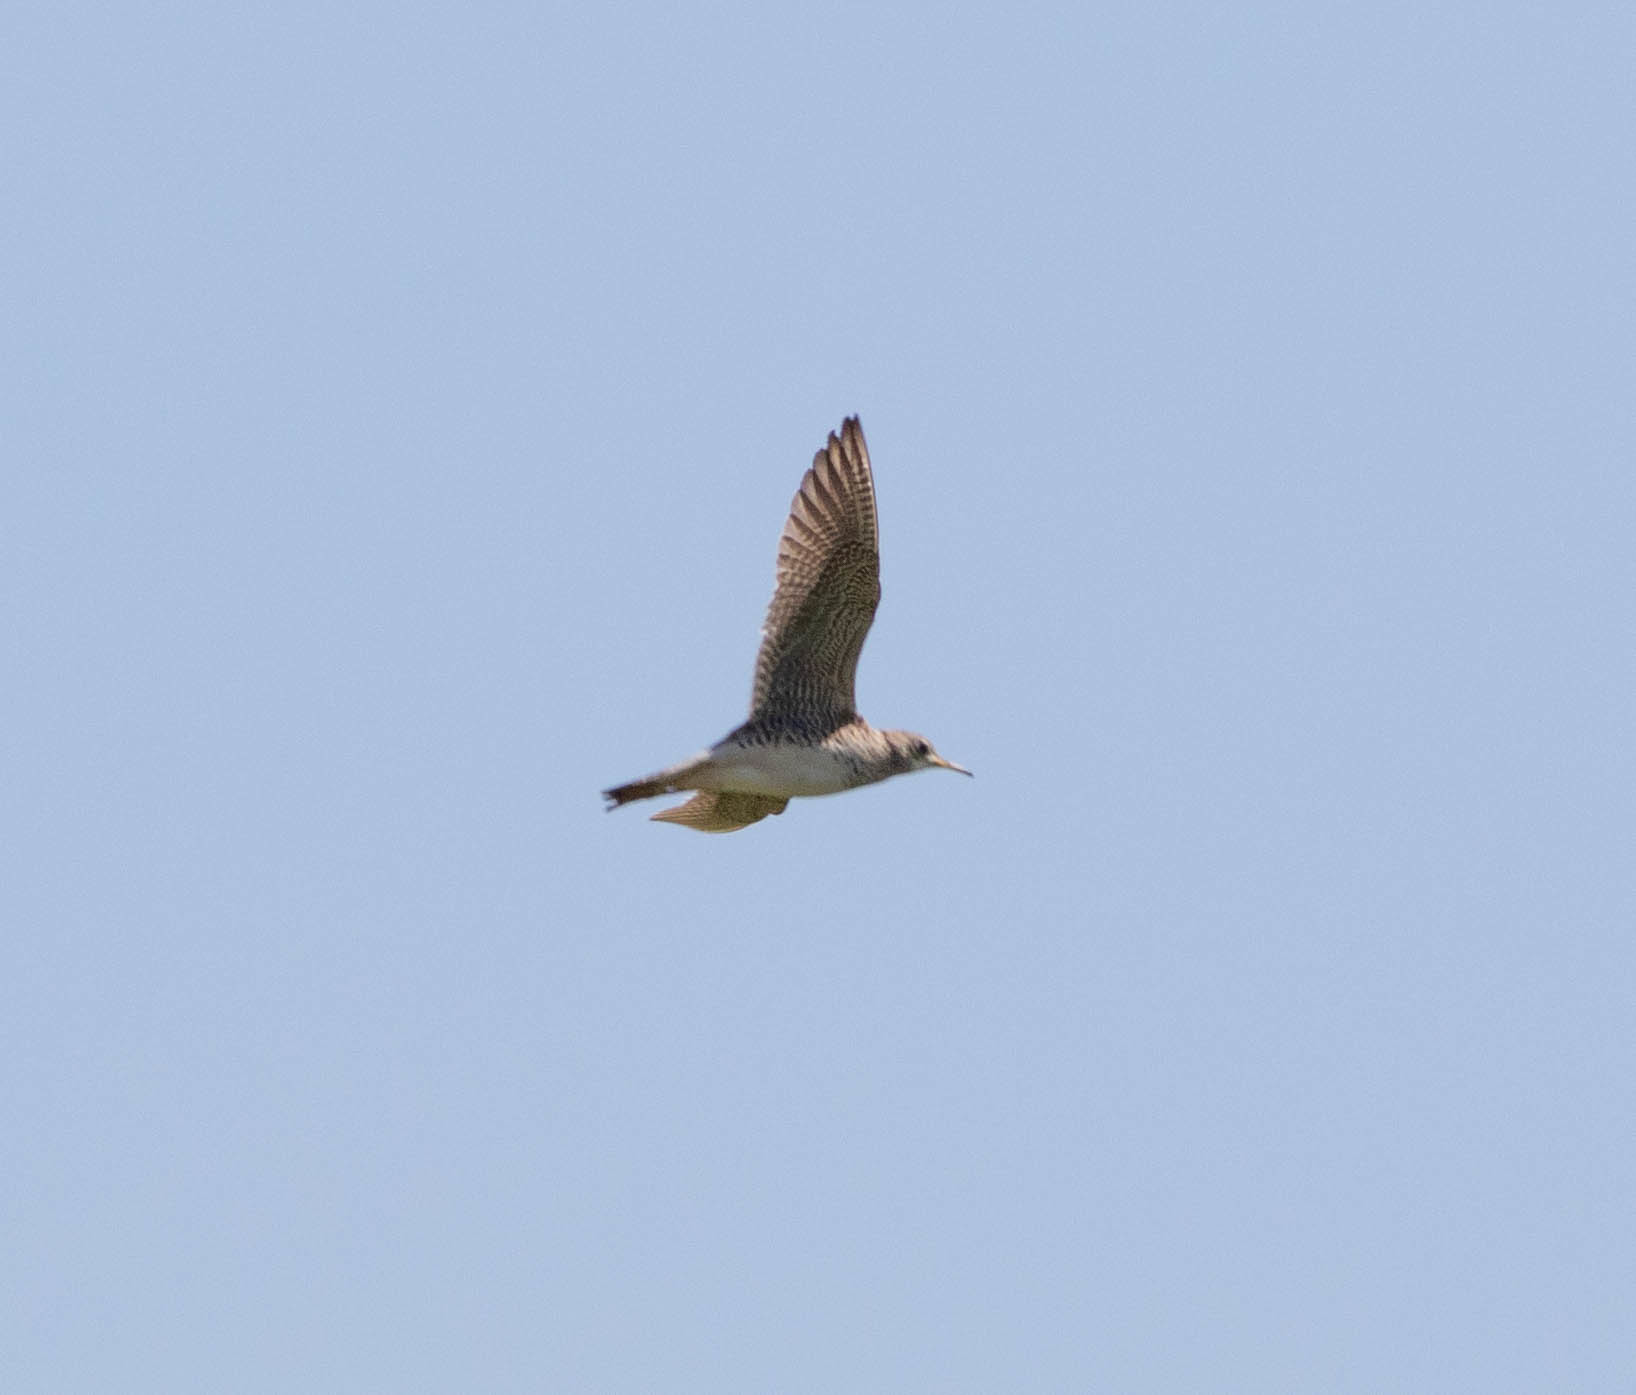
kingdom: Animalia
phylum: Chordata
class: Aves
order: Charadriiformes
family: Scolopacidae
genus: Bartramia
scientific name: Bartramia longicauda
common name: Upland sandpiper
